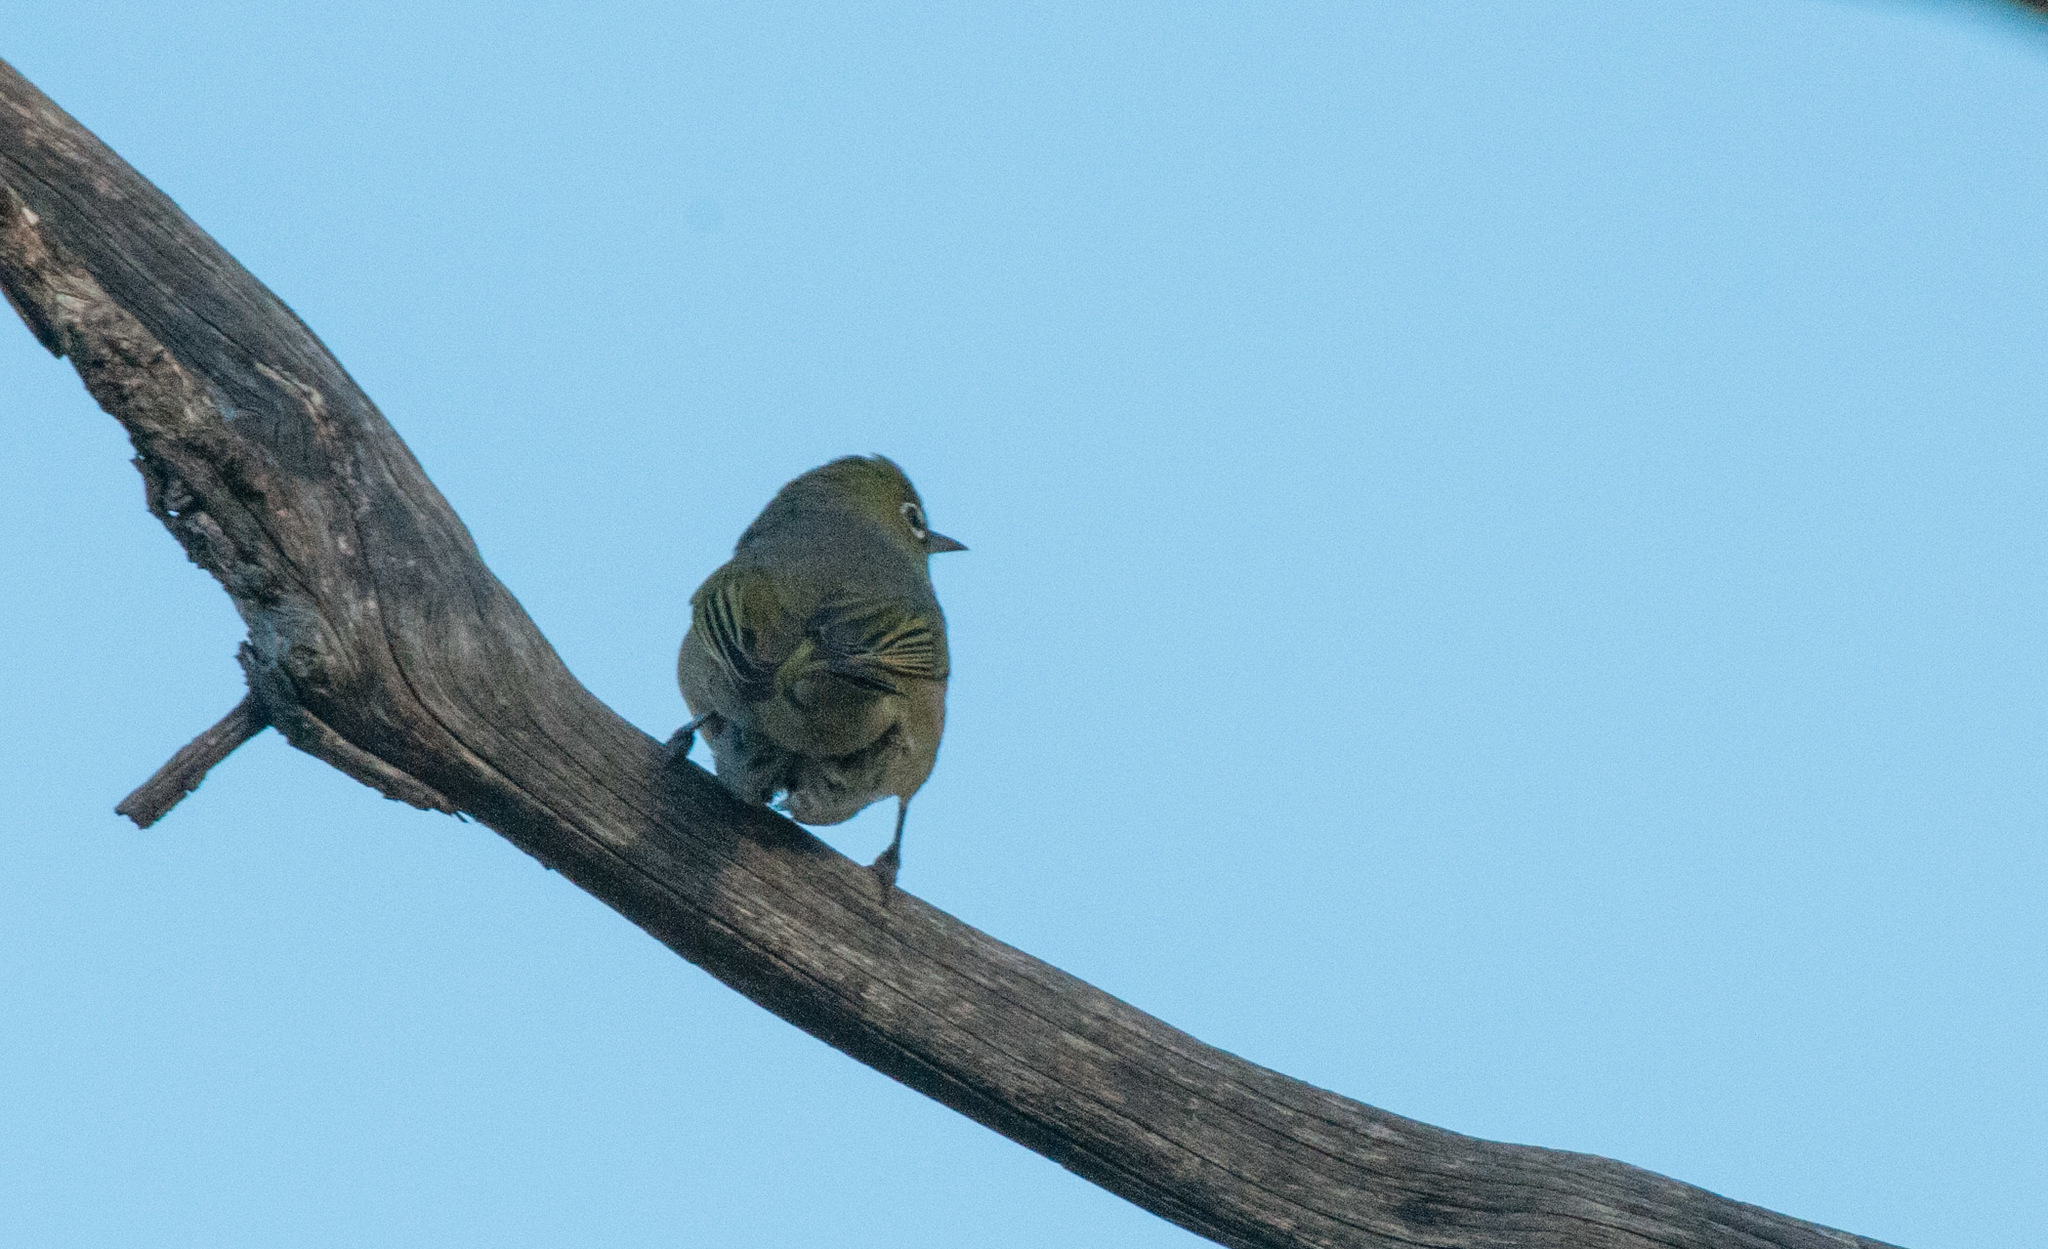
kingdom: Animalia
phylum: Chordata
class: Aves
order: Passeriformes
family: Zosteropidae
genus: Zosterops
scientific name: Zosterops lateralis
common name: Silvereye
